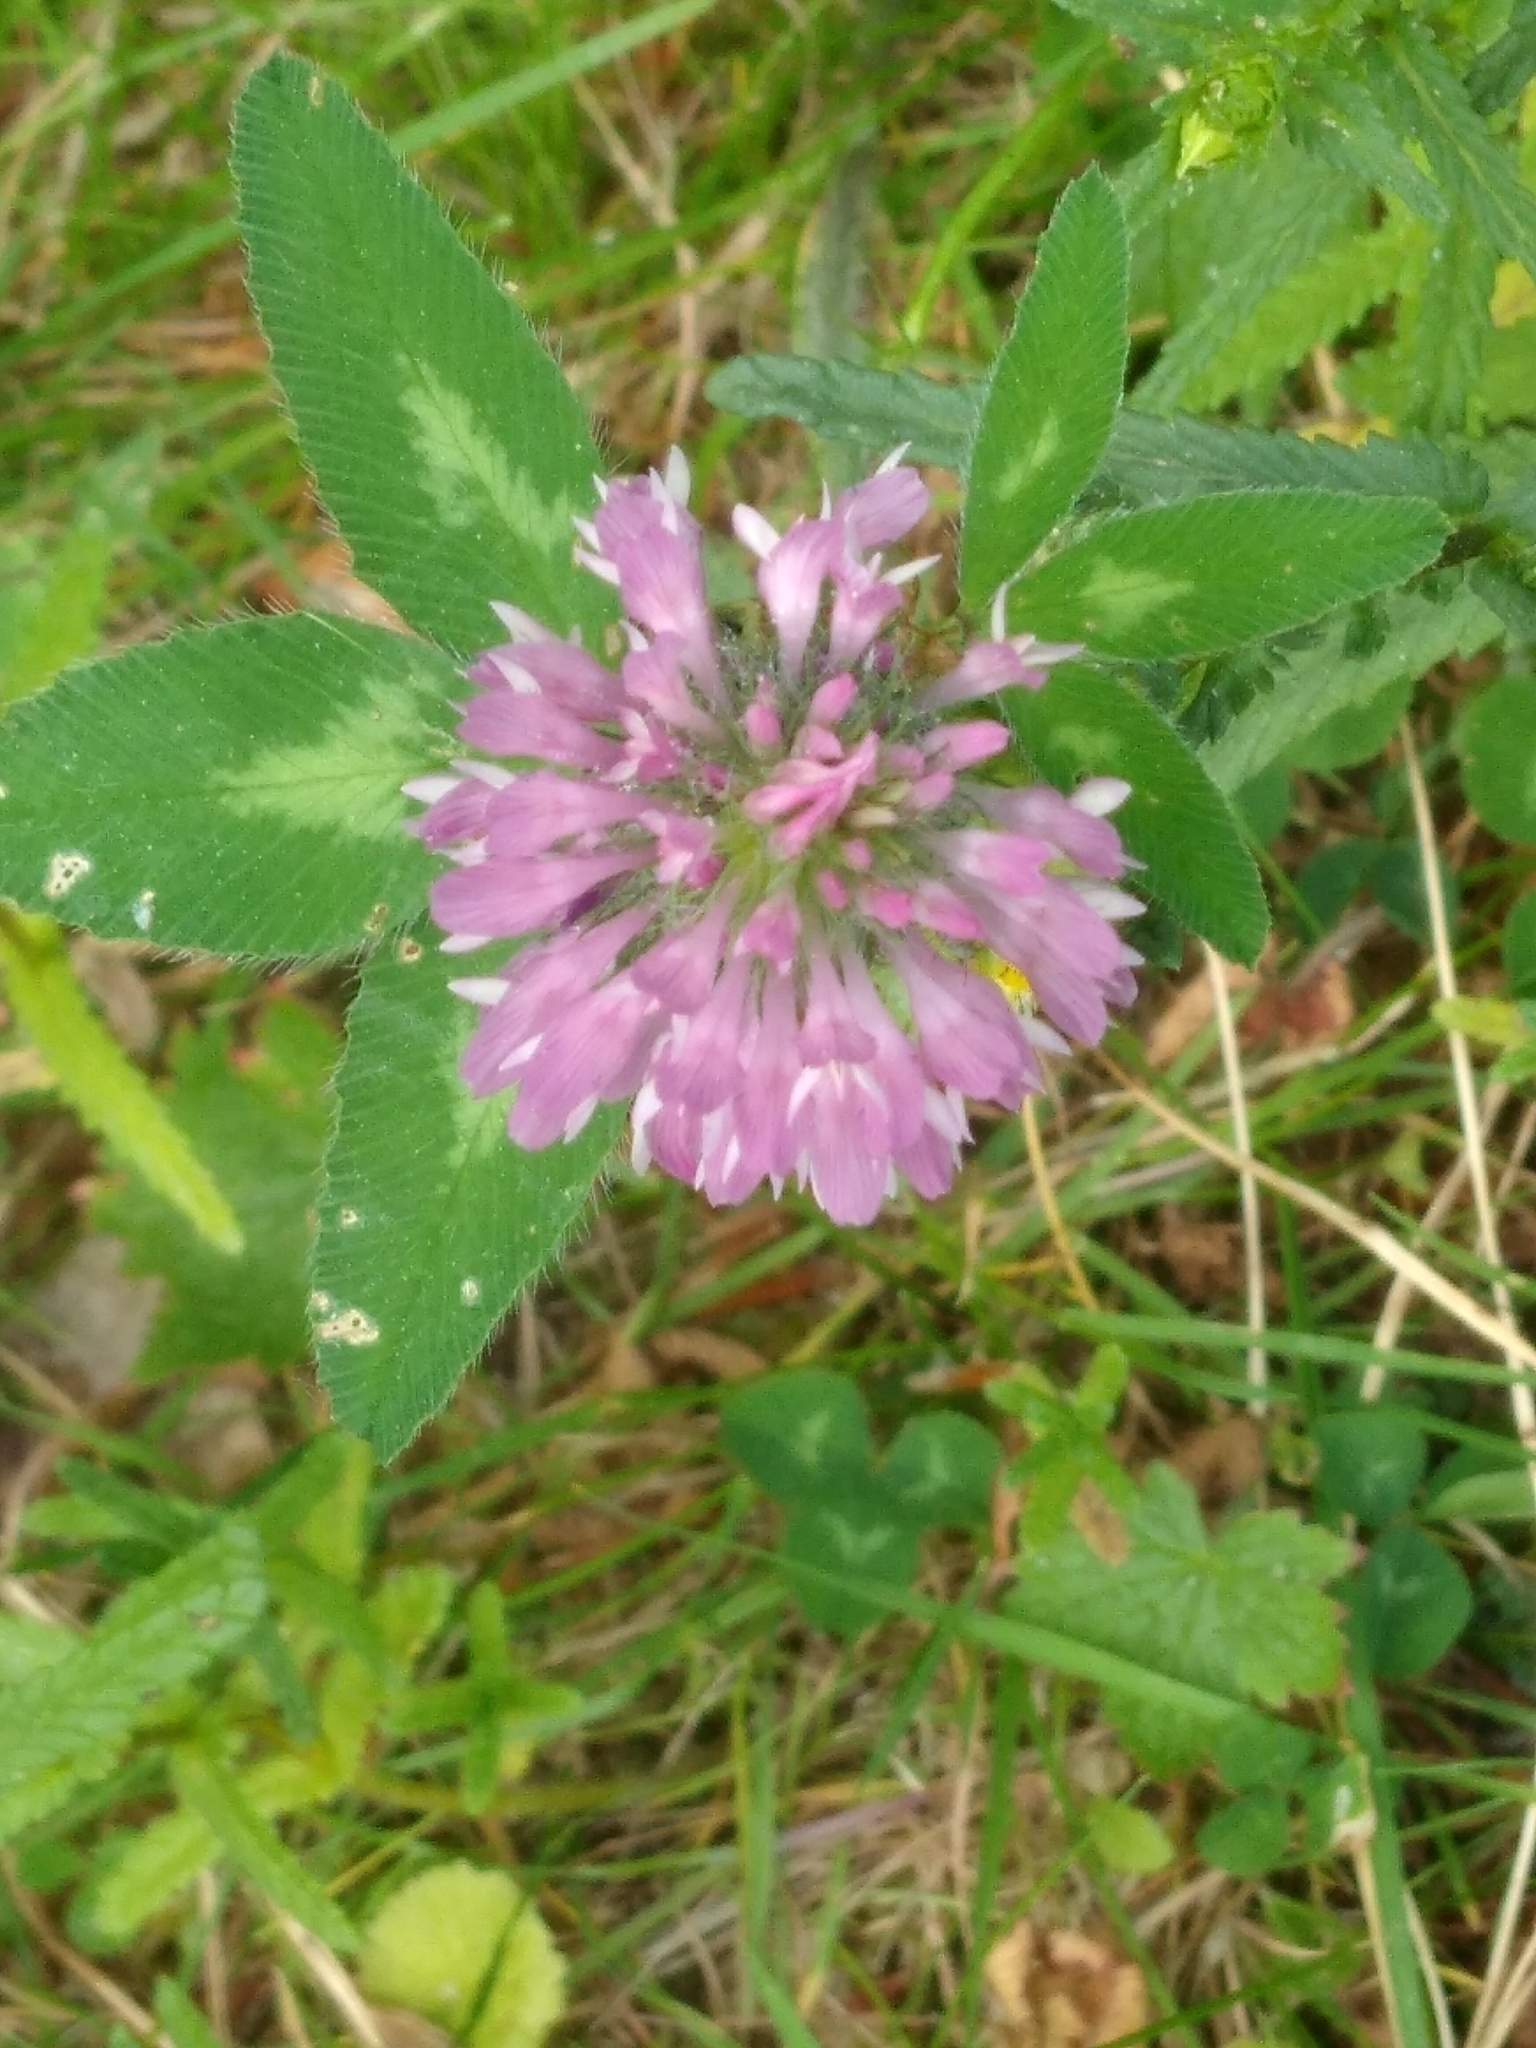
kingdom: Plantae
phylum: Tracheophyta
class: Magnoliopsida
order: Fabales
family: Fabaceae
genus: Trifolium
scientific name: Trifolium pratense
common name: Red clover
